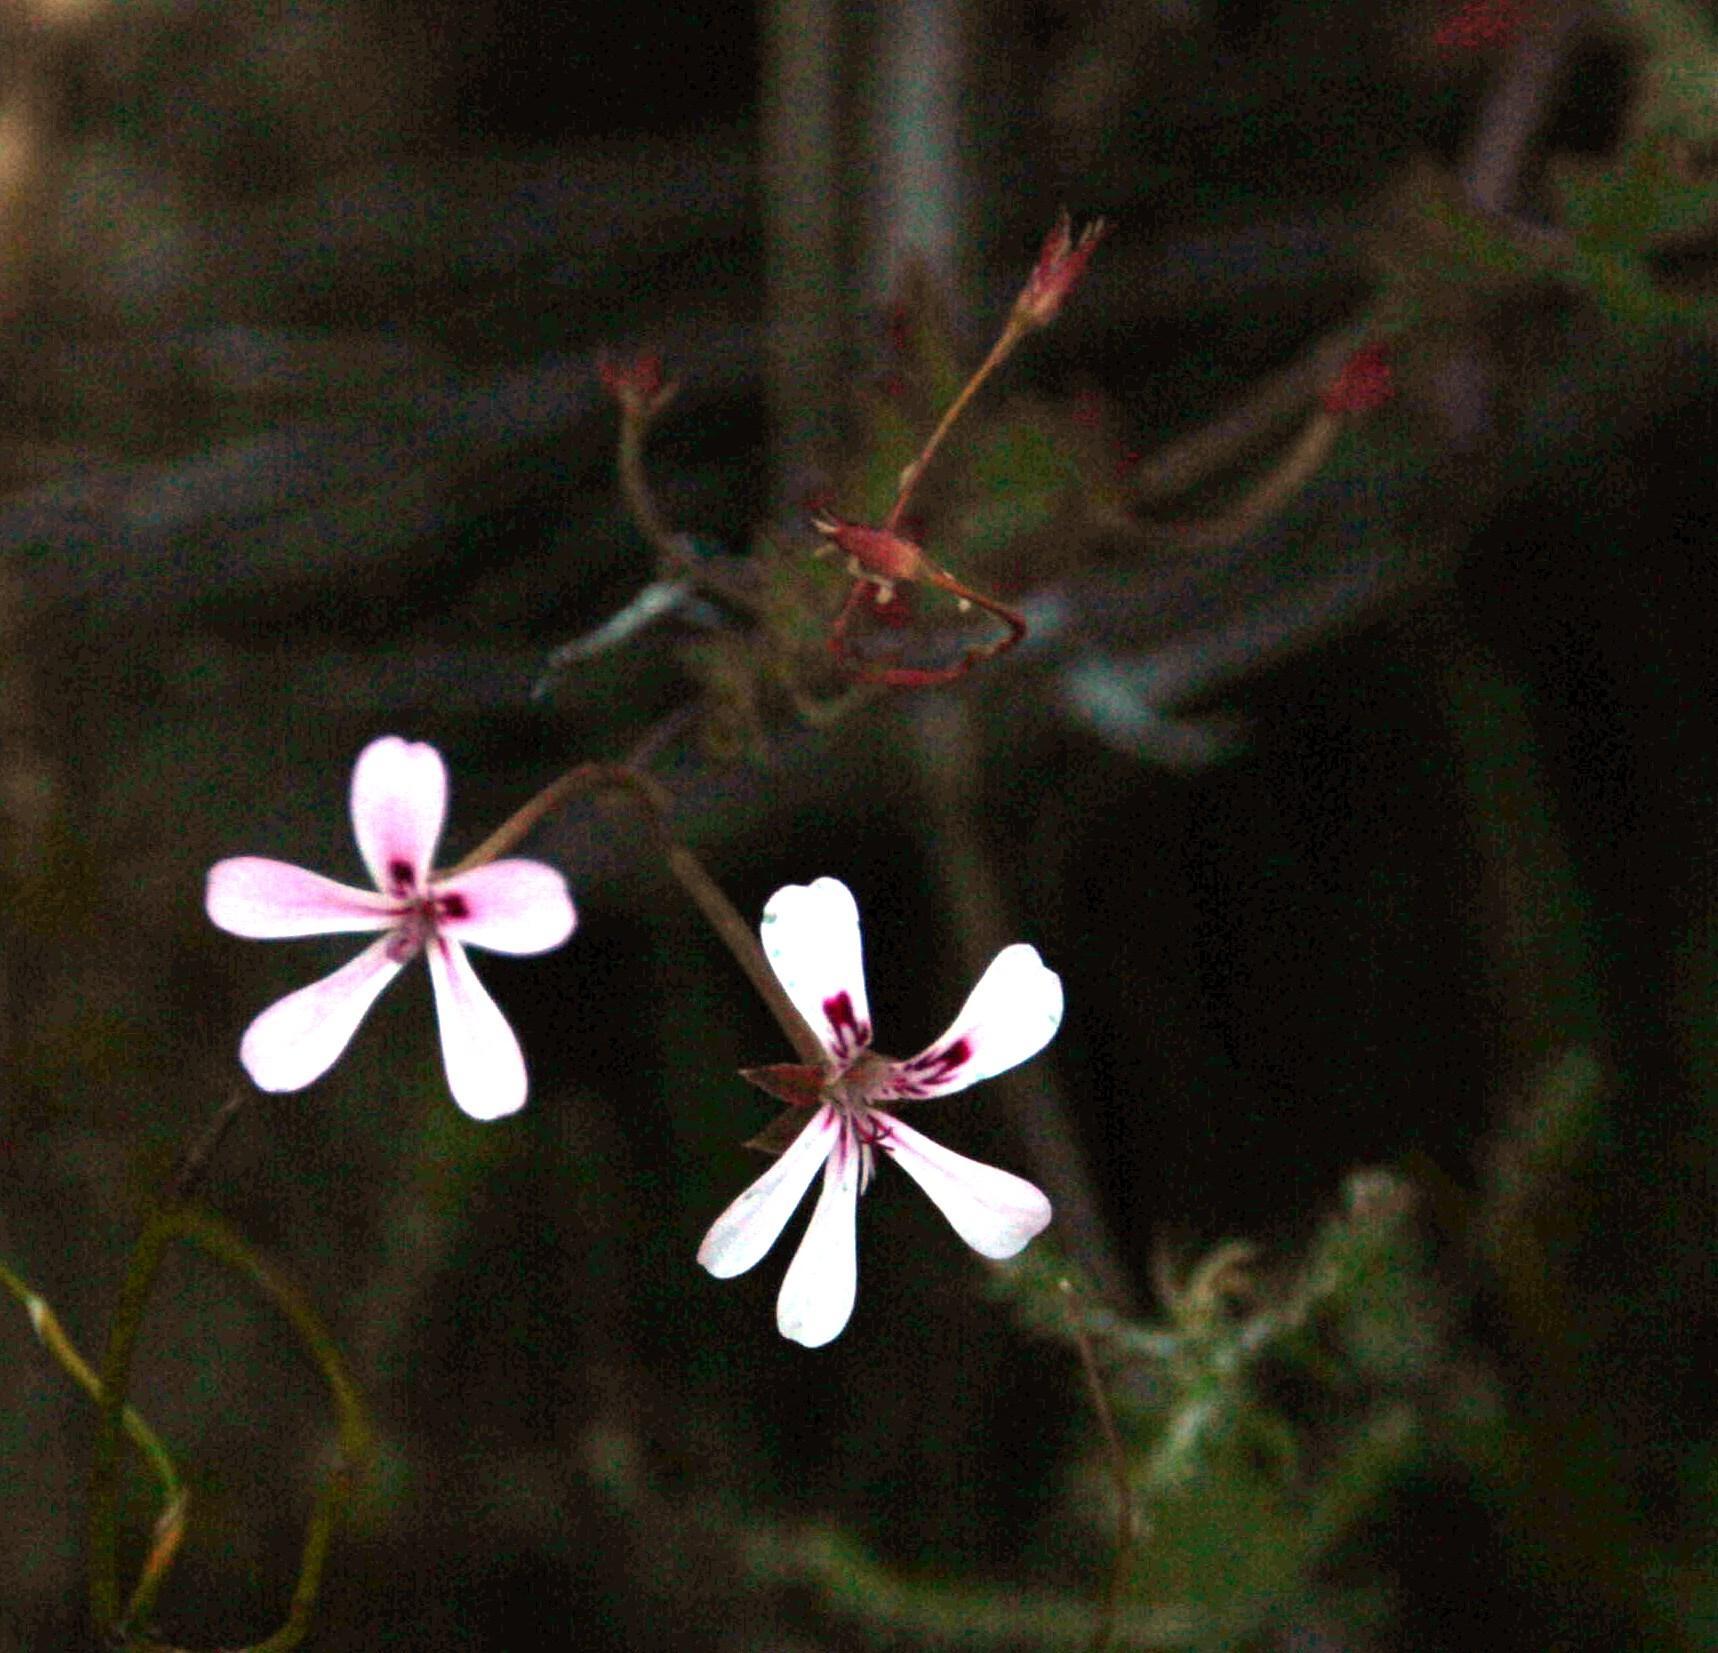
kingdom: Plantae
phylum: Tracheophyta
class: Magnoliopsida
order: Geraniales
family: Geraniaceae
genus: Pelargonium
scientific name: Pelargonium patulum
